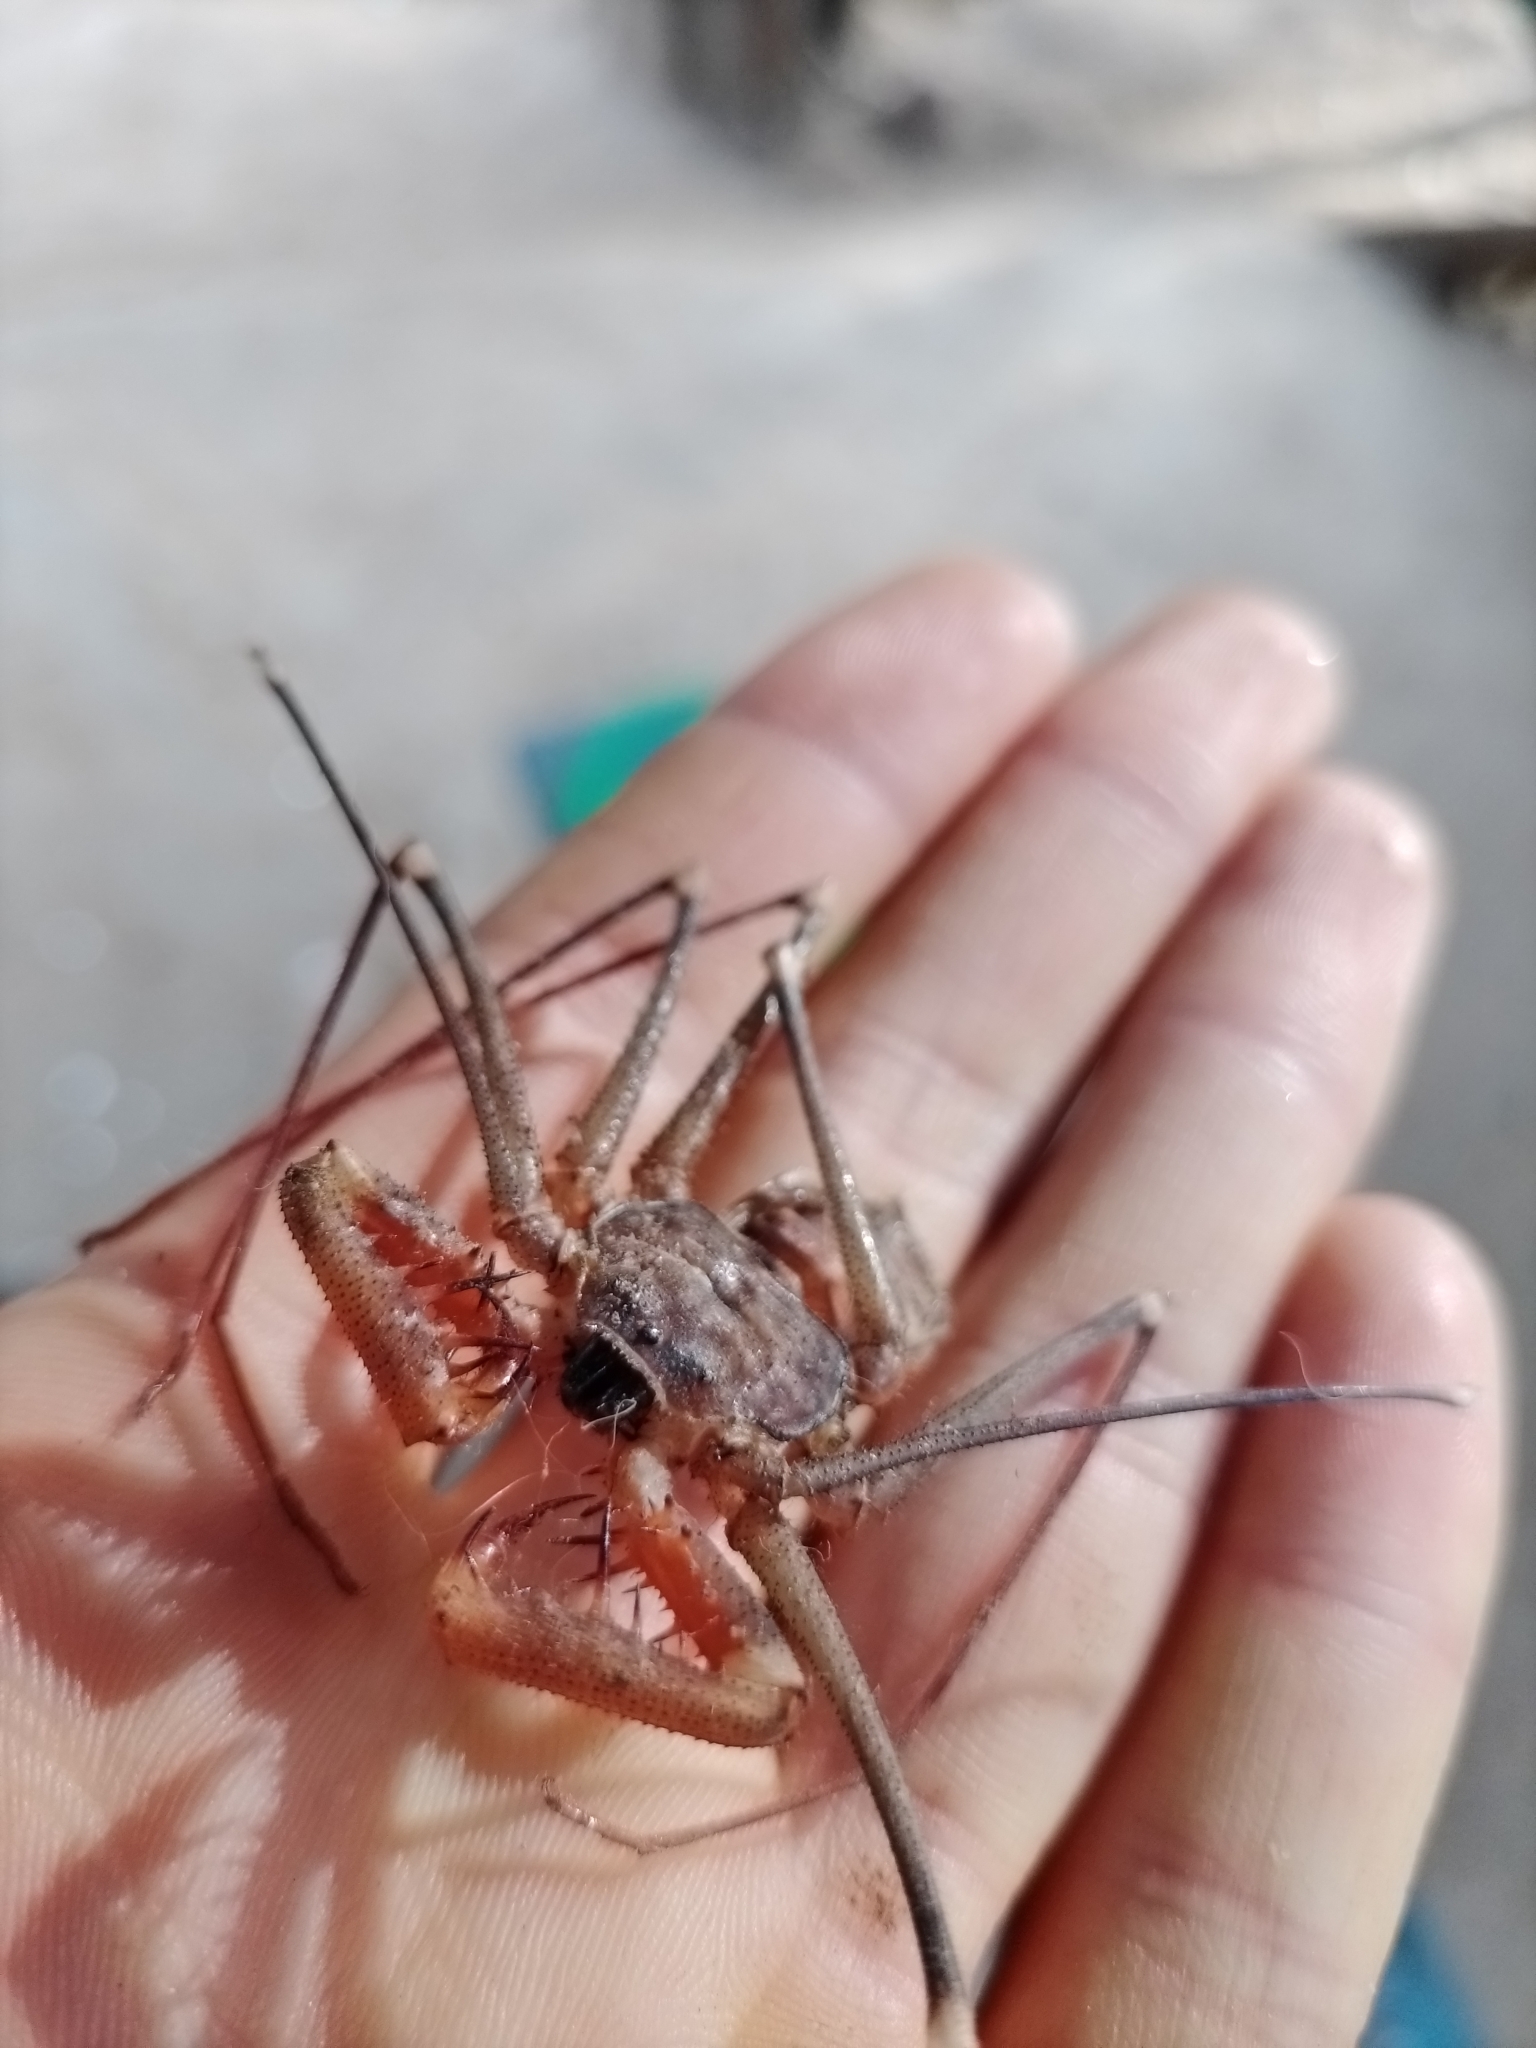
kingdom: Animalia
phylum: Arthropoda
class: Arachnida
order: Amblypygi
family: Phrynidae
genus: Acanthophrynus
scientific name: Acanthophrynus coronatus
